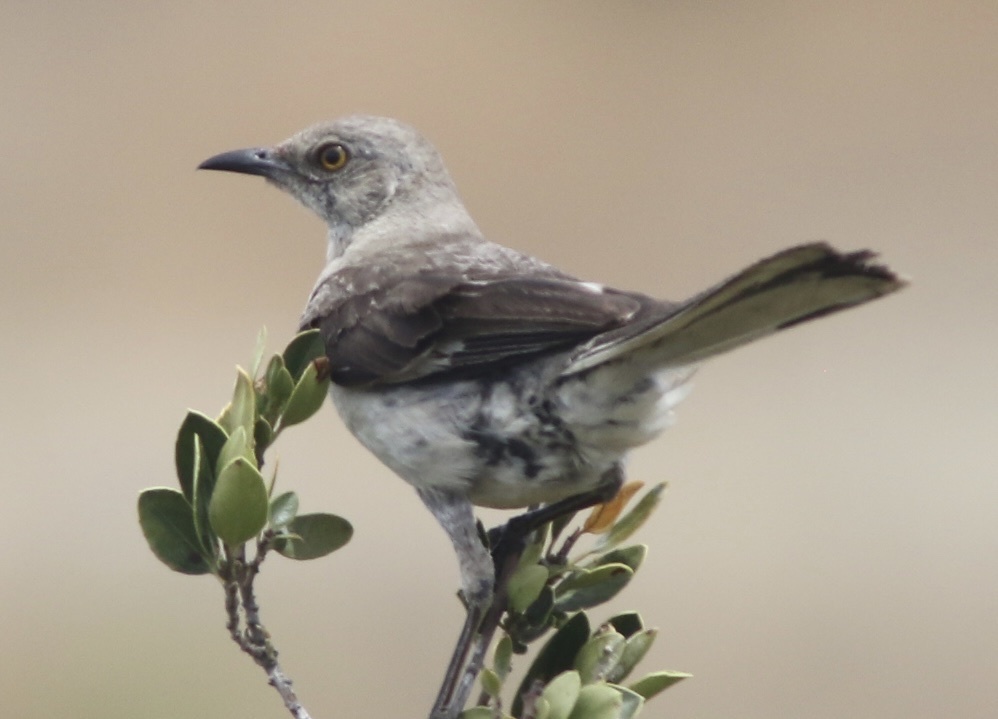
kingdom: Animalia
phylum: Chordata
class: Aves
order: Passeriformes
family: Mimidae
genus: Mimus
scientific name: Mimus polyglottos
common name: Northern mockingbird
